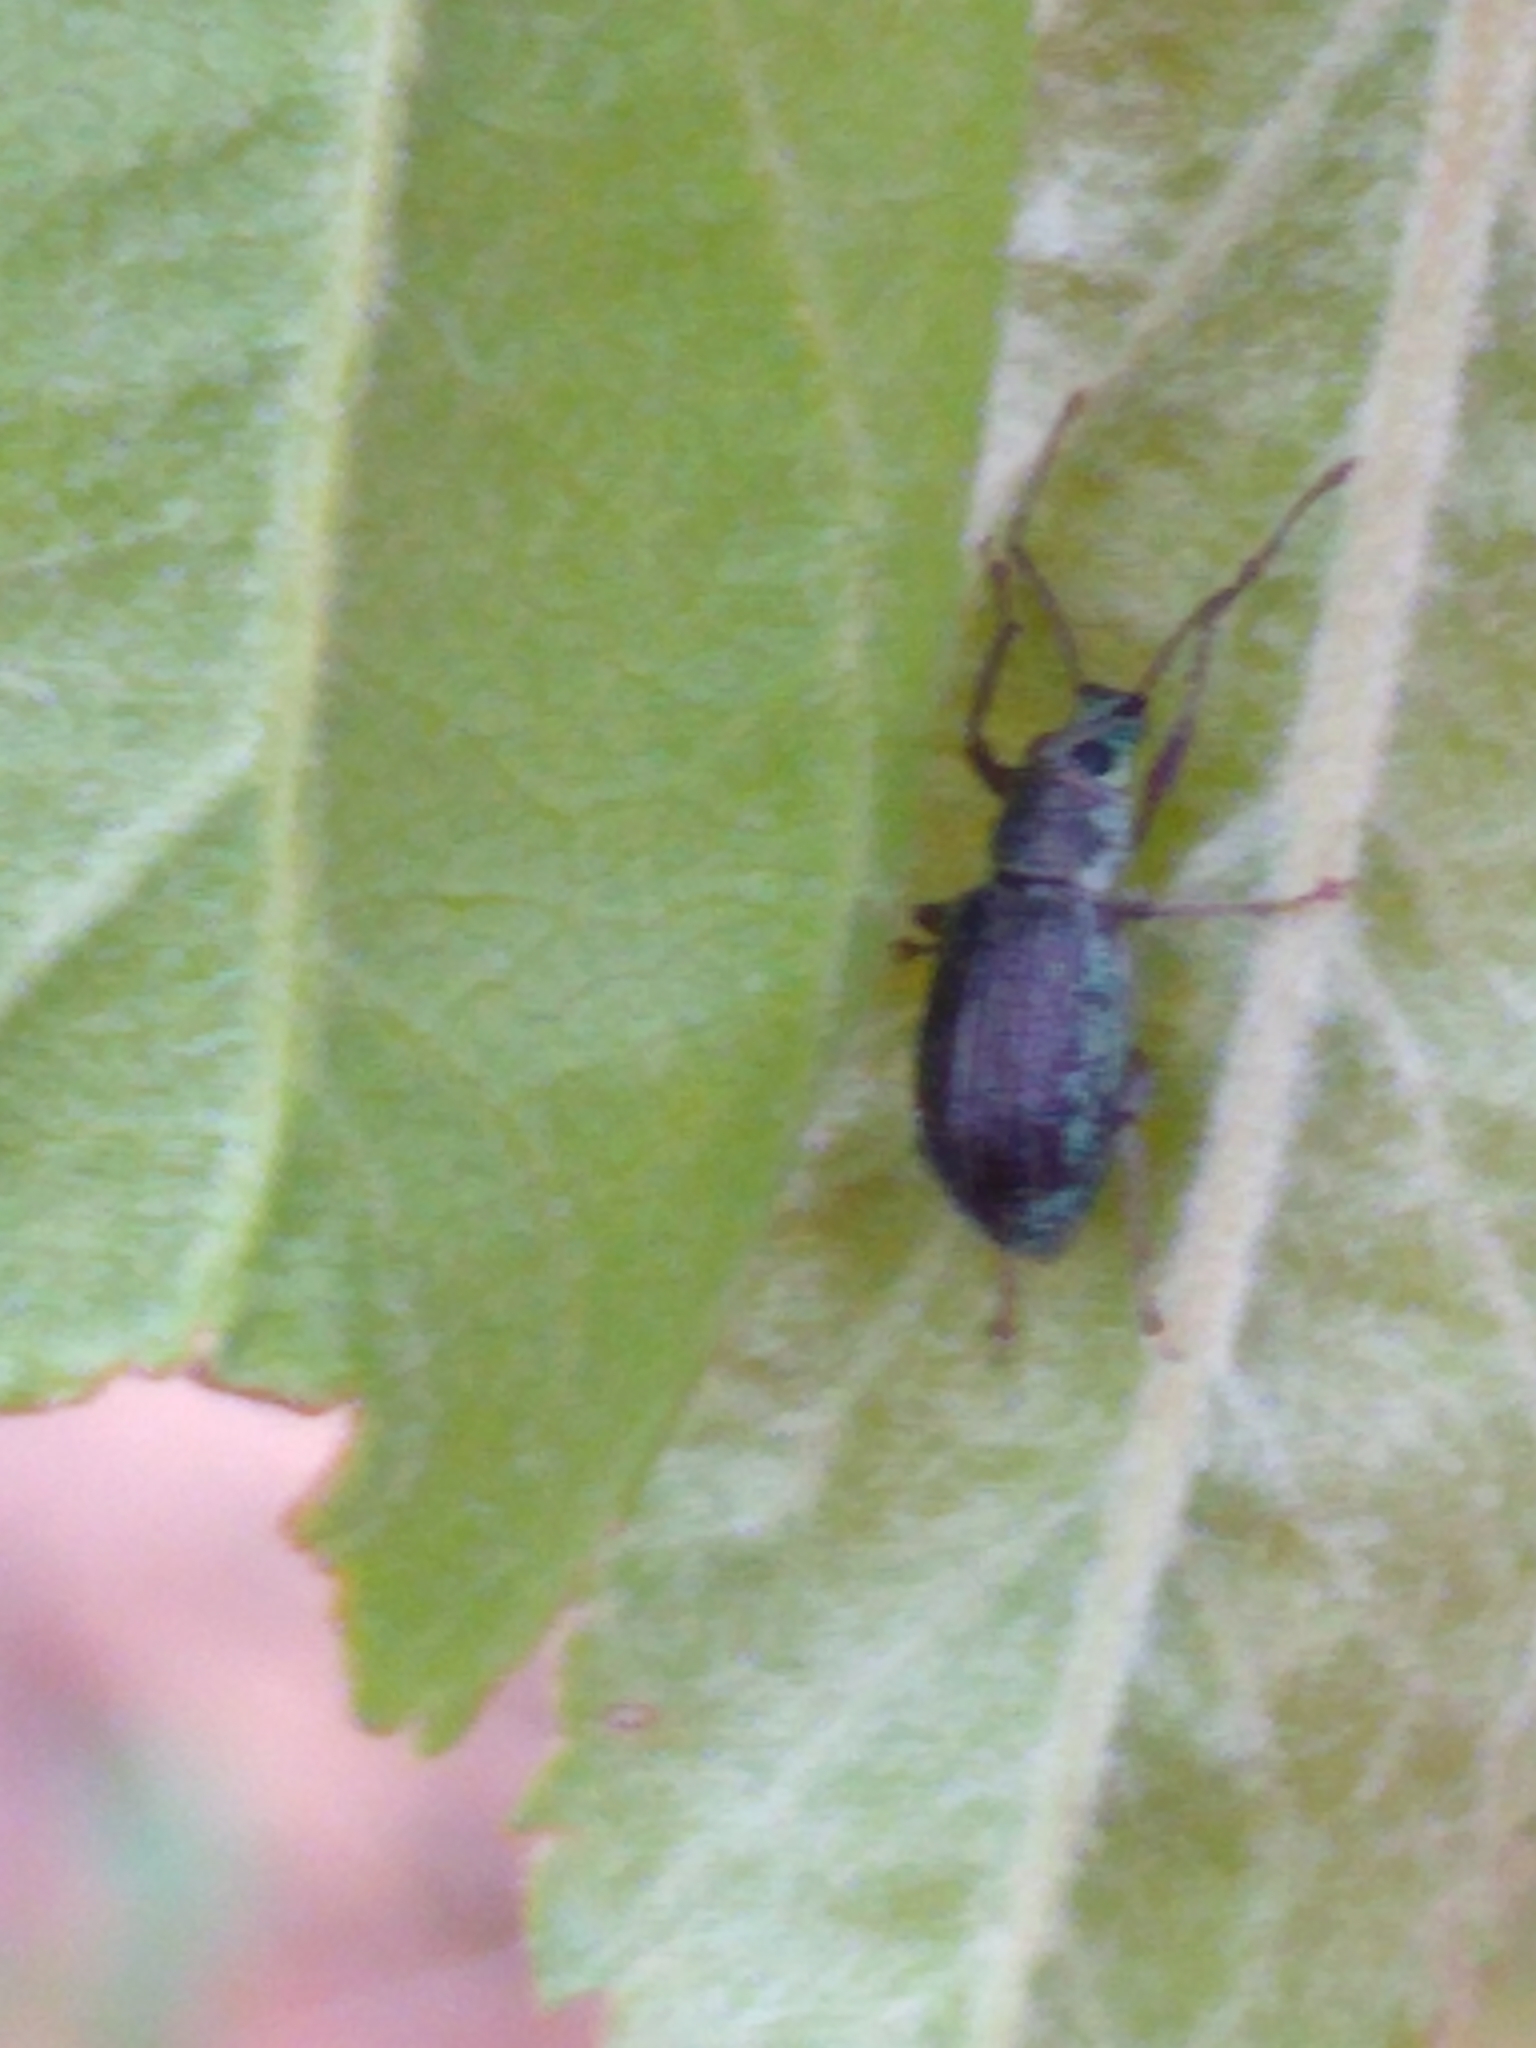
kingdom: Animalia
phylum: Arthropoda
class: Insecta
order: Coleoptera
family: Curculionidae
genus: Cyrtepistomus
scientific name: Cyrtepistomus castaneus
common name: Weevil
